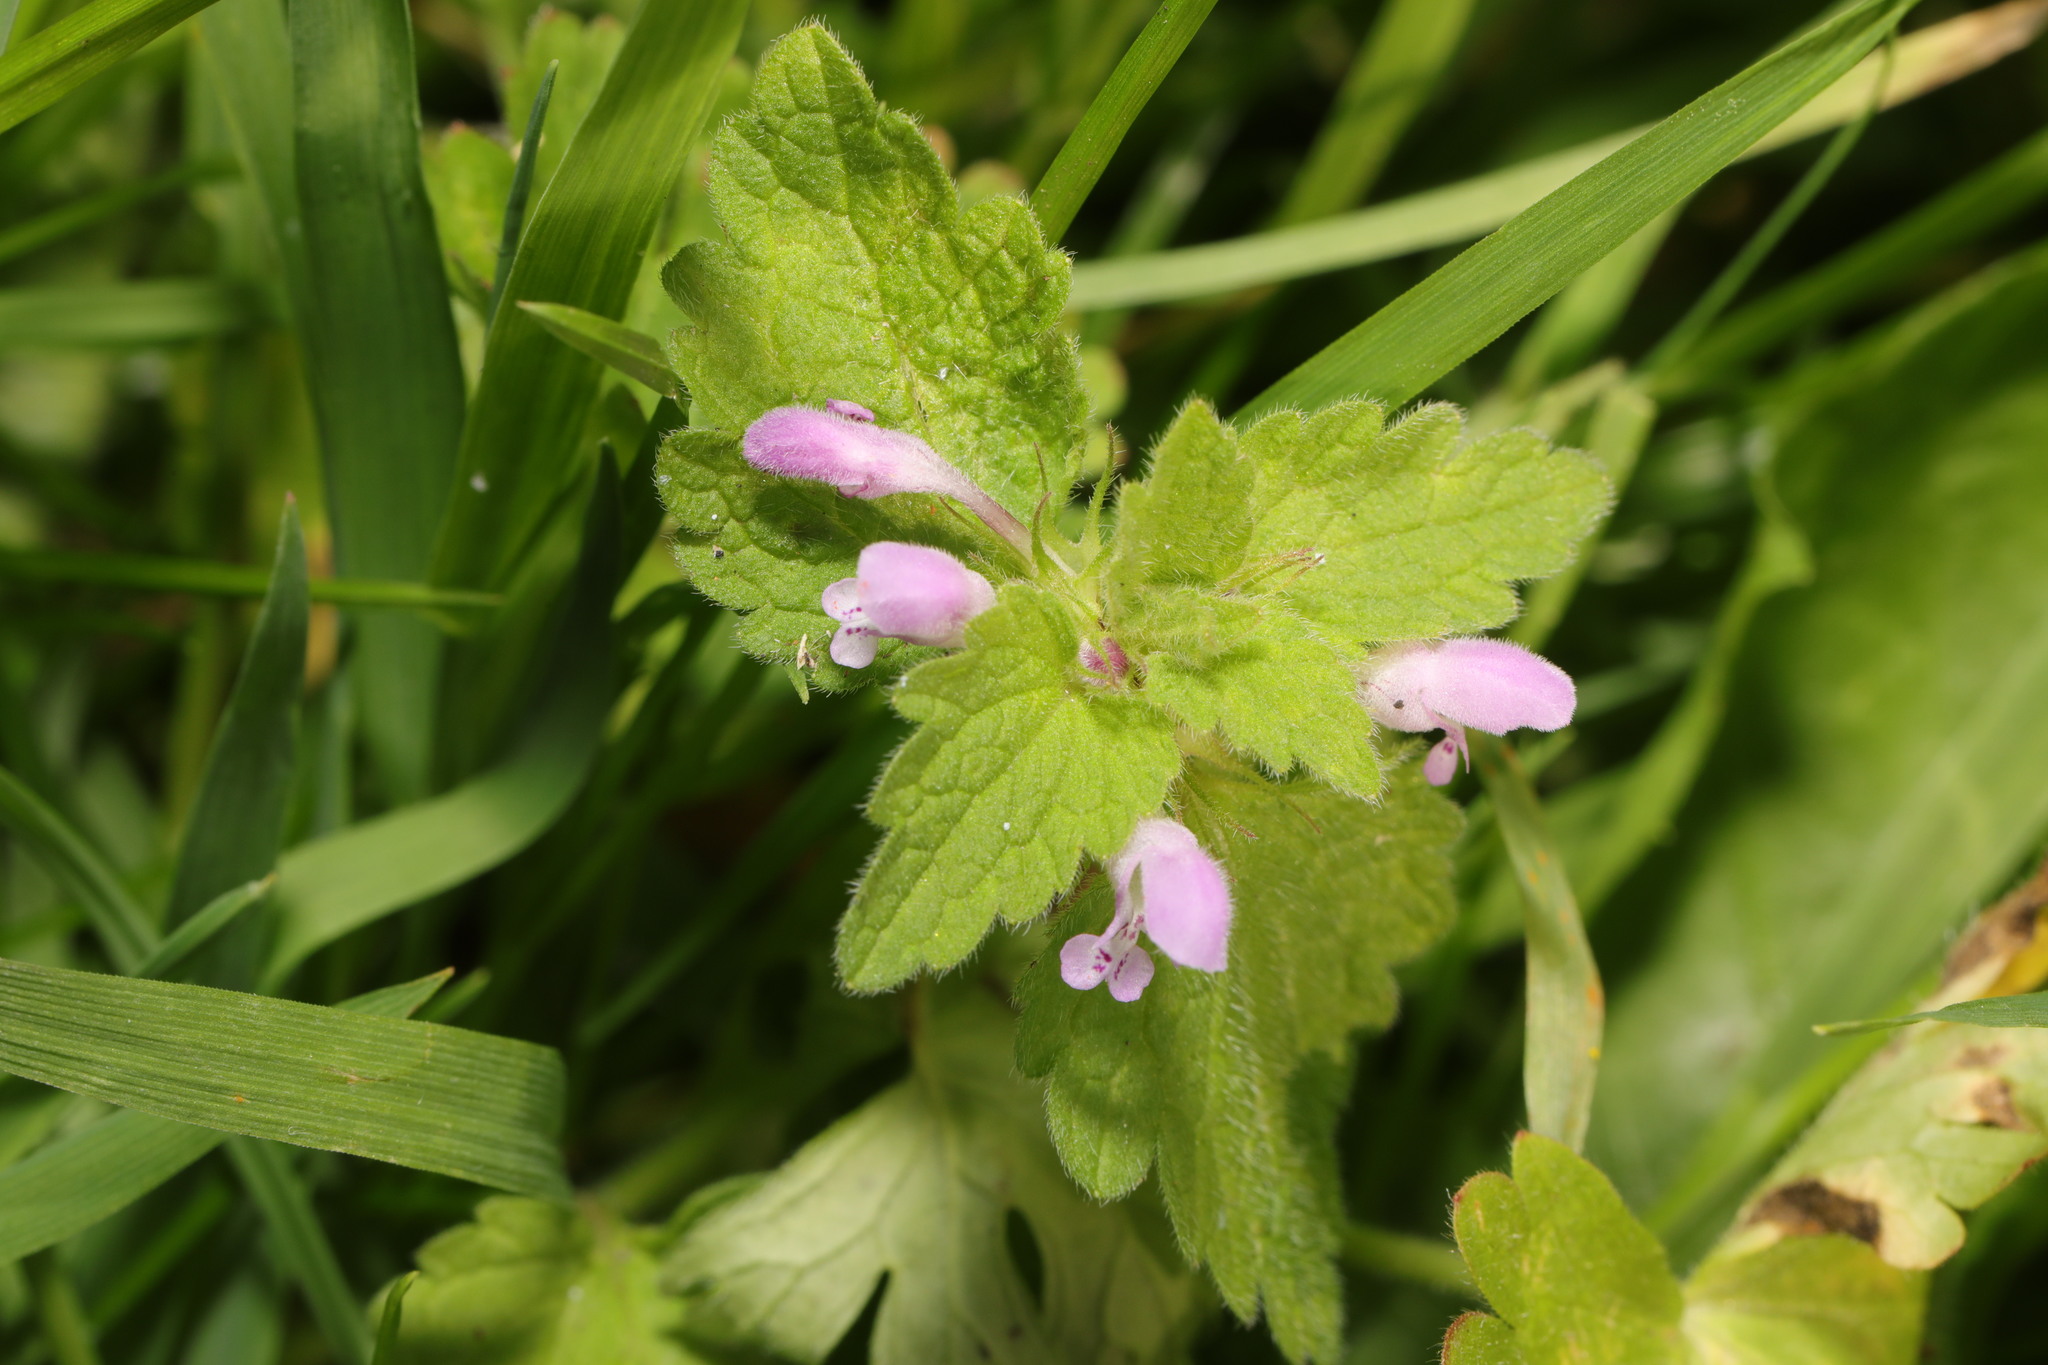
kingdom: Plantae
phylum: Tracheophyta
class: Magnoliopsida
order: Lamiales
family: Lamiaceae
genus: Lamium
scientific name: Lamium purpureum
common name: Red dead-nettle
